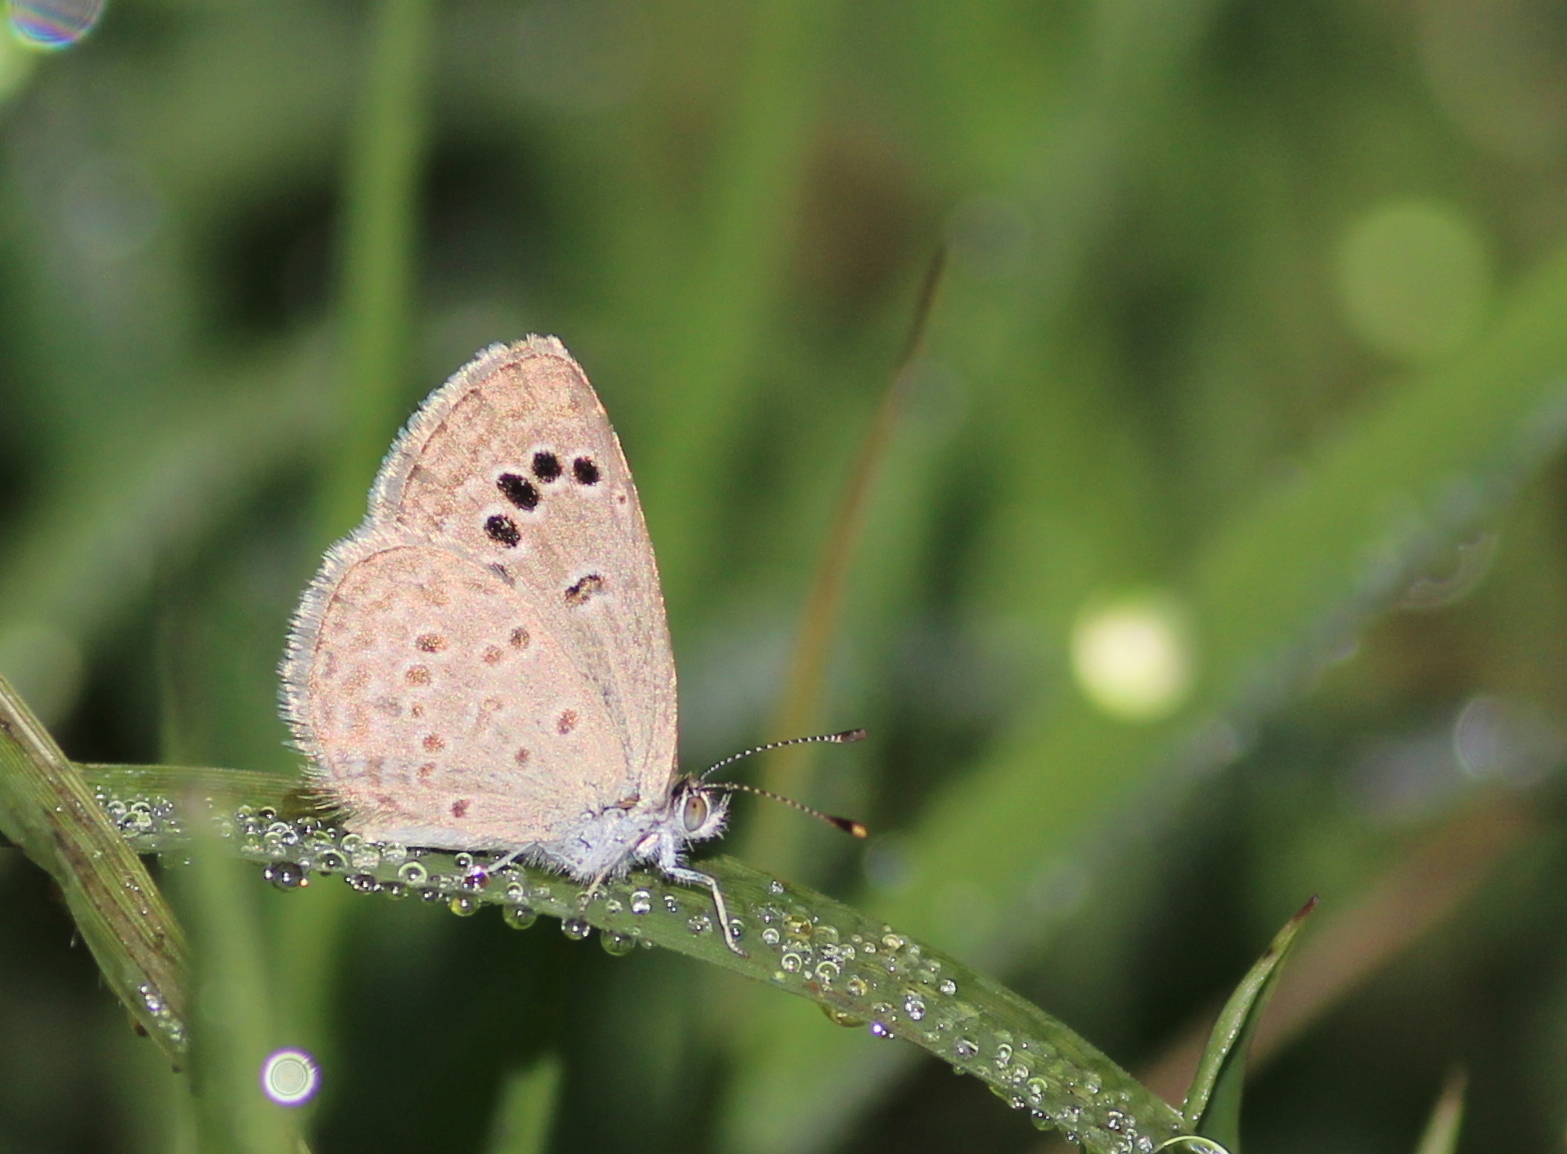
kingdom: Animalia
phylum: Arthropoda
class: Insecta
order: Lepidoptera
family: Lycaenidae
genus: Zizina
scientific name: Zizina otis
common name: Lesser grass blue
